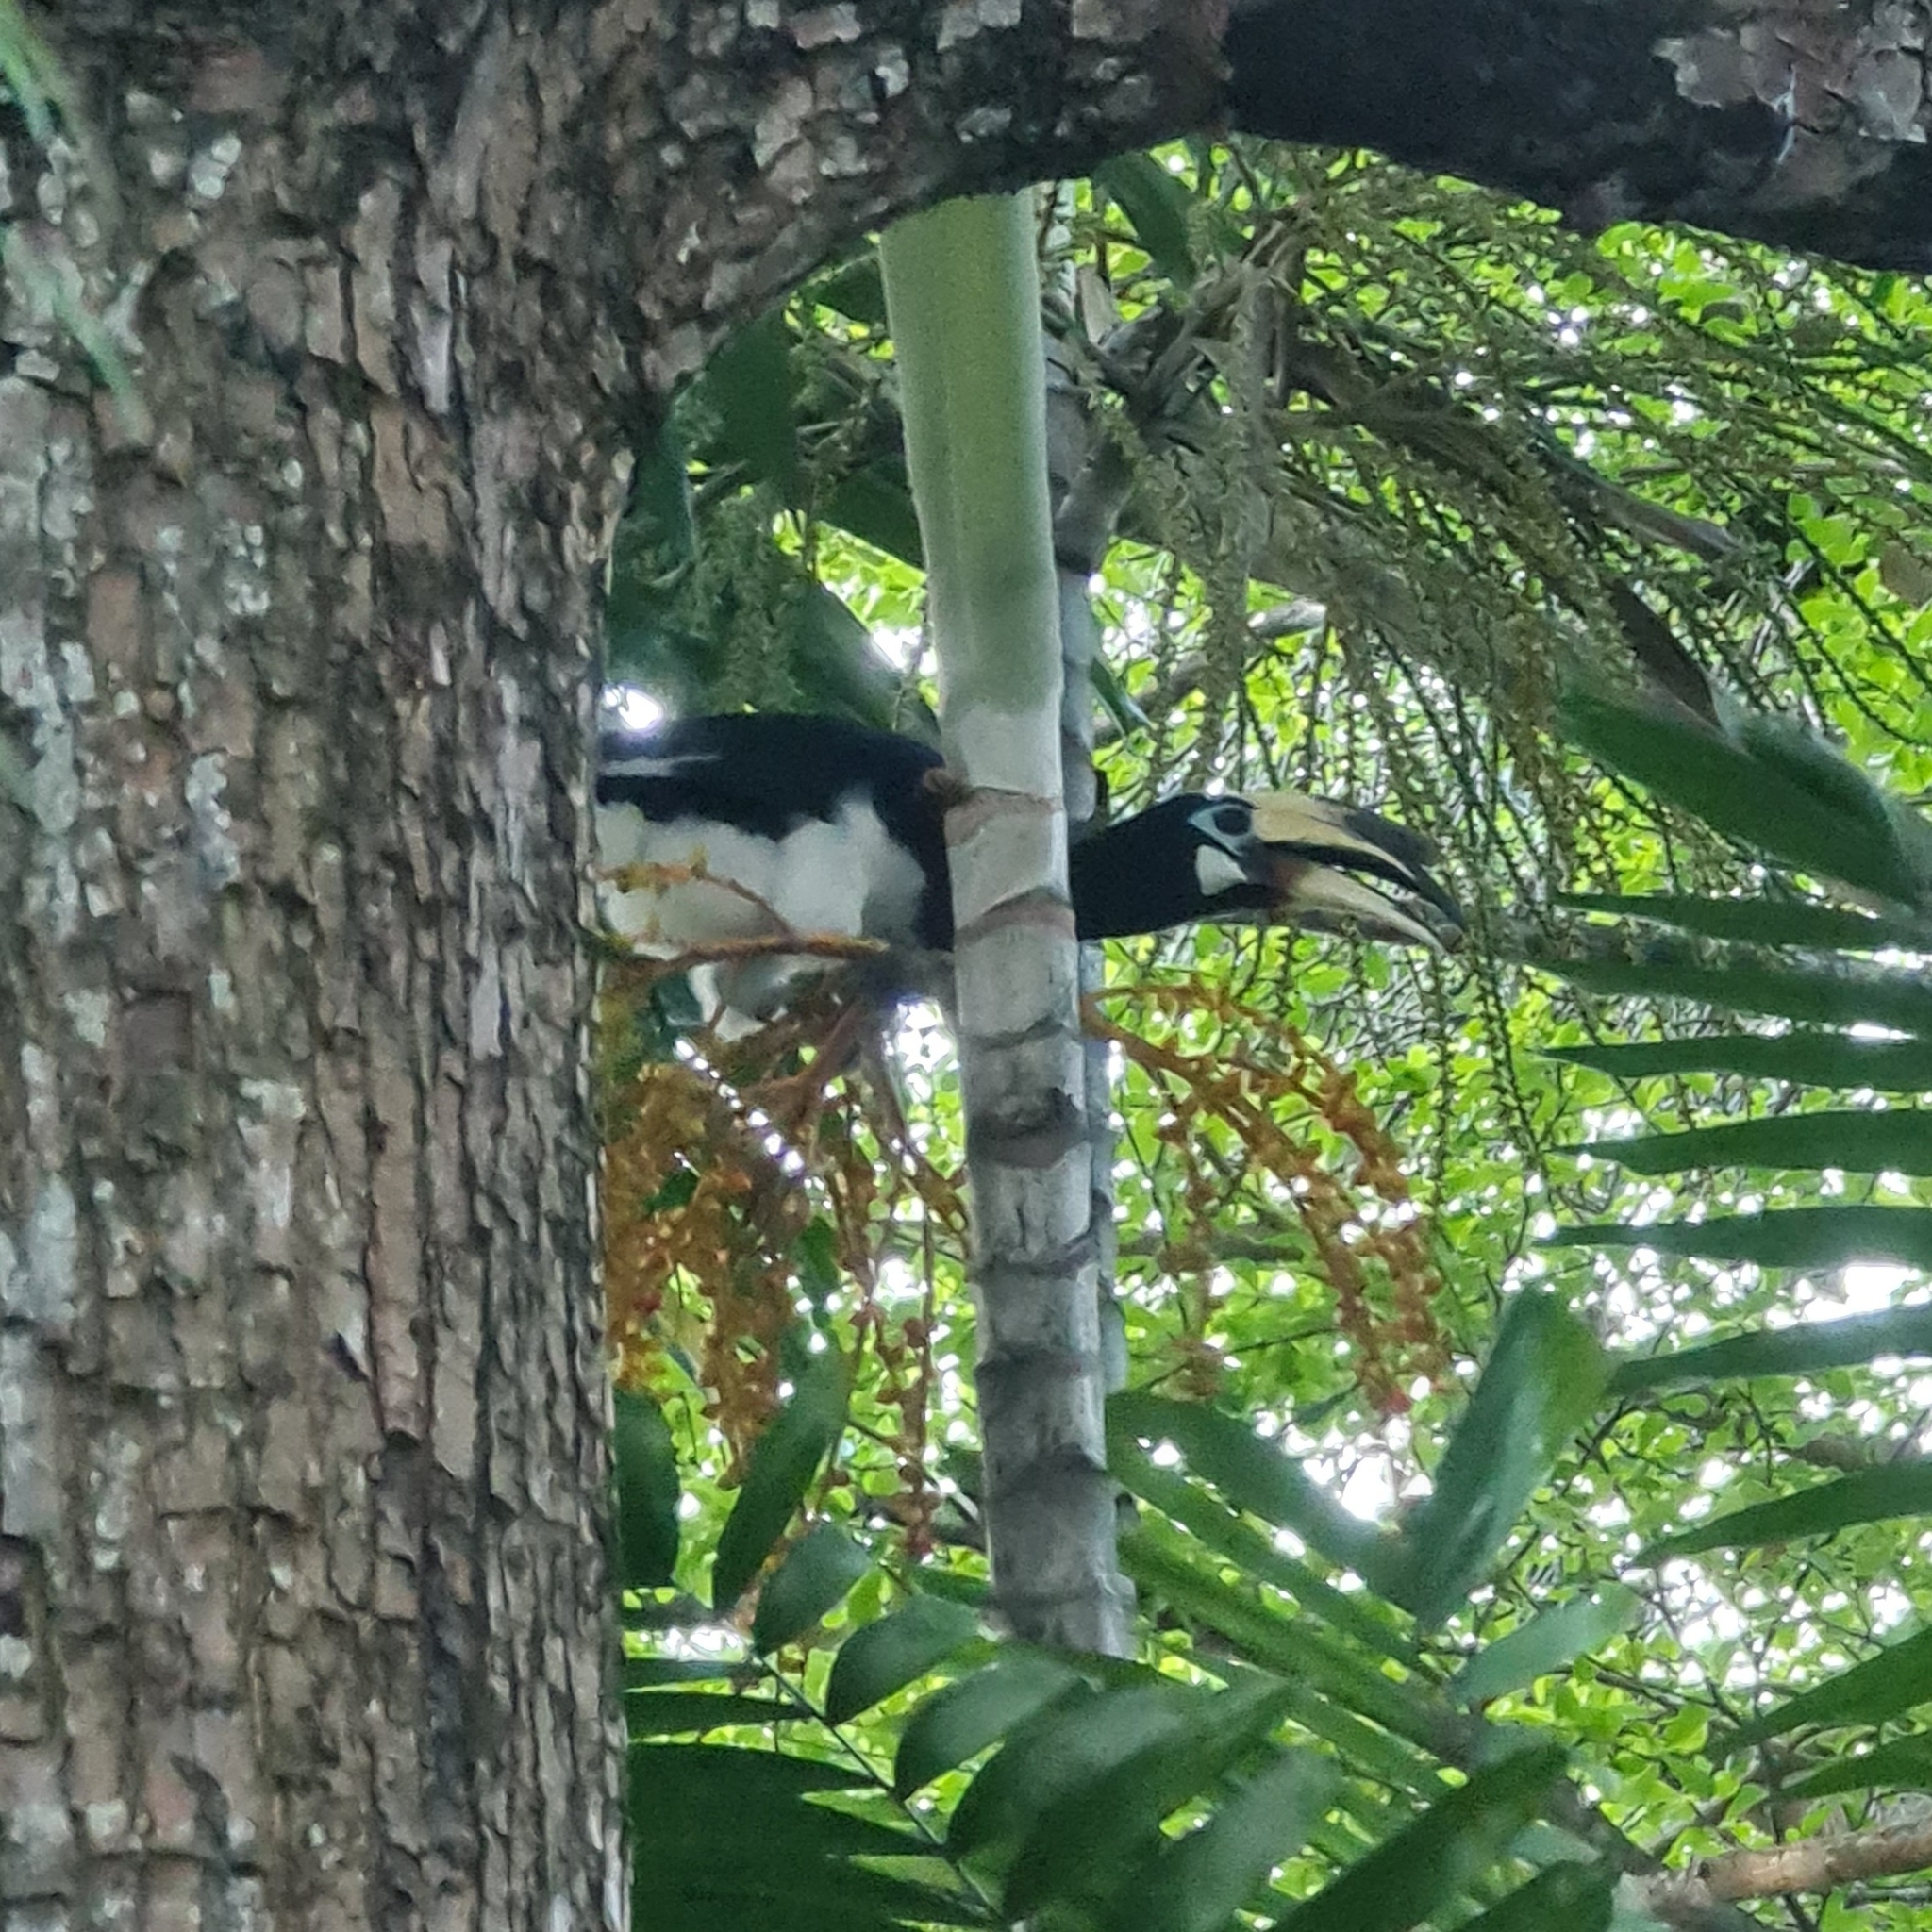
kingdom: Animalia
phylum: Chordata
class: Aves
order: Bucerotiformes
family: Bucerotidae
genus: Anthracoceros
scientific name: Anthracoceros albirostris
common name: Oriental pied-hornbill
